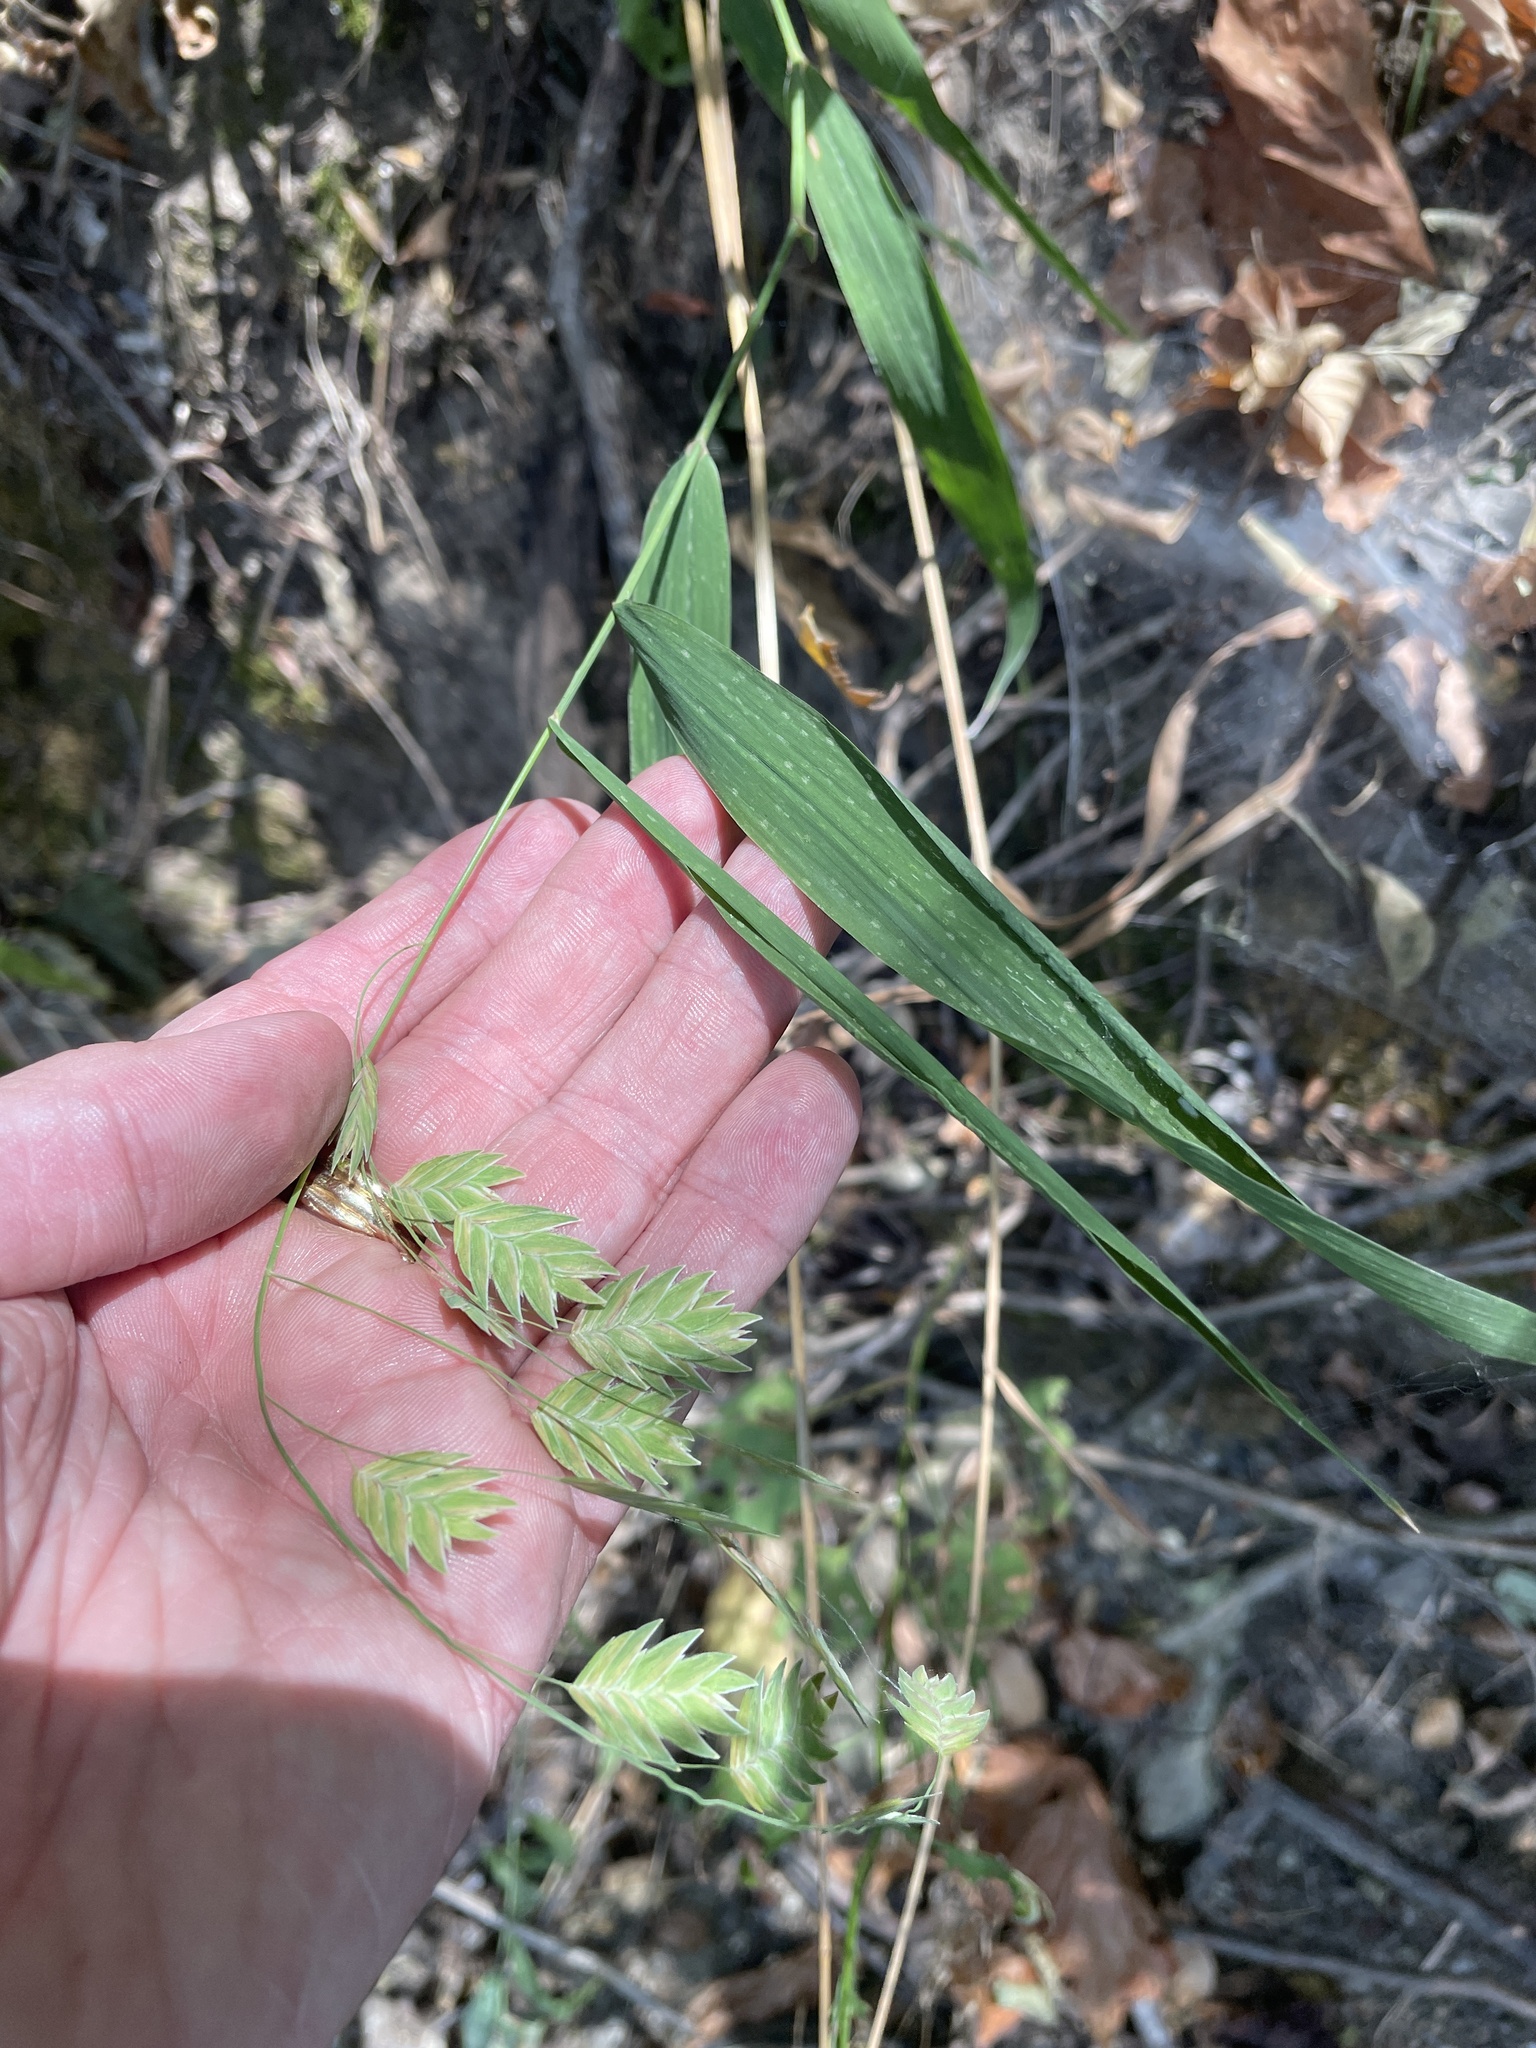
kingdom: Plantae
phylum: Tracheophyta
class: Liliopsida
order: Poales
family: Poaceae
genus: Chasmanthium
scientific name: Chasmanthium latifolium
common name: Broad-leaved chasmanthium
